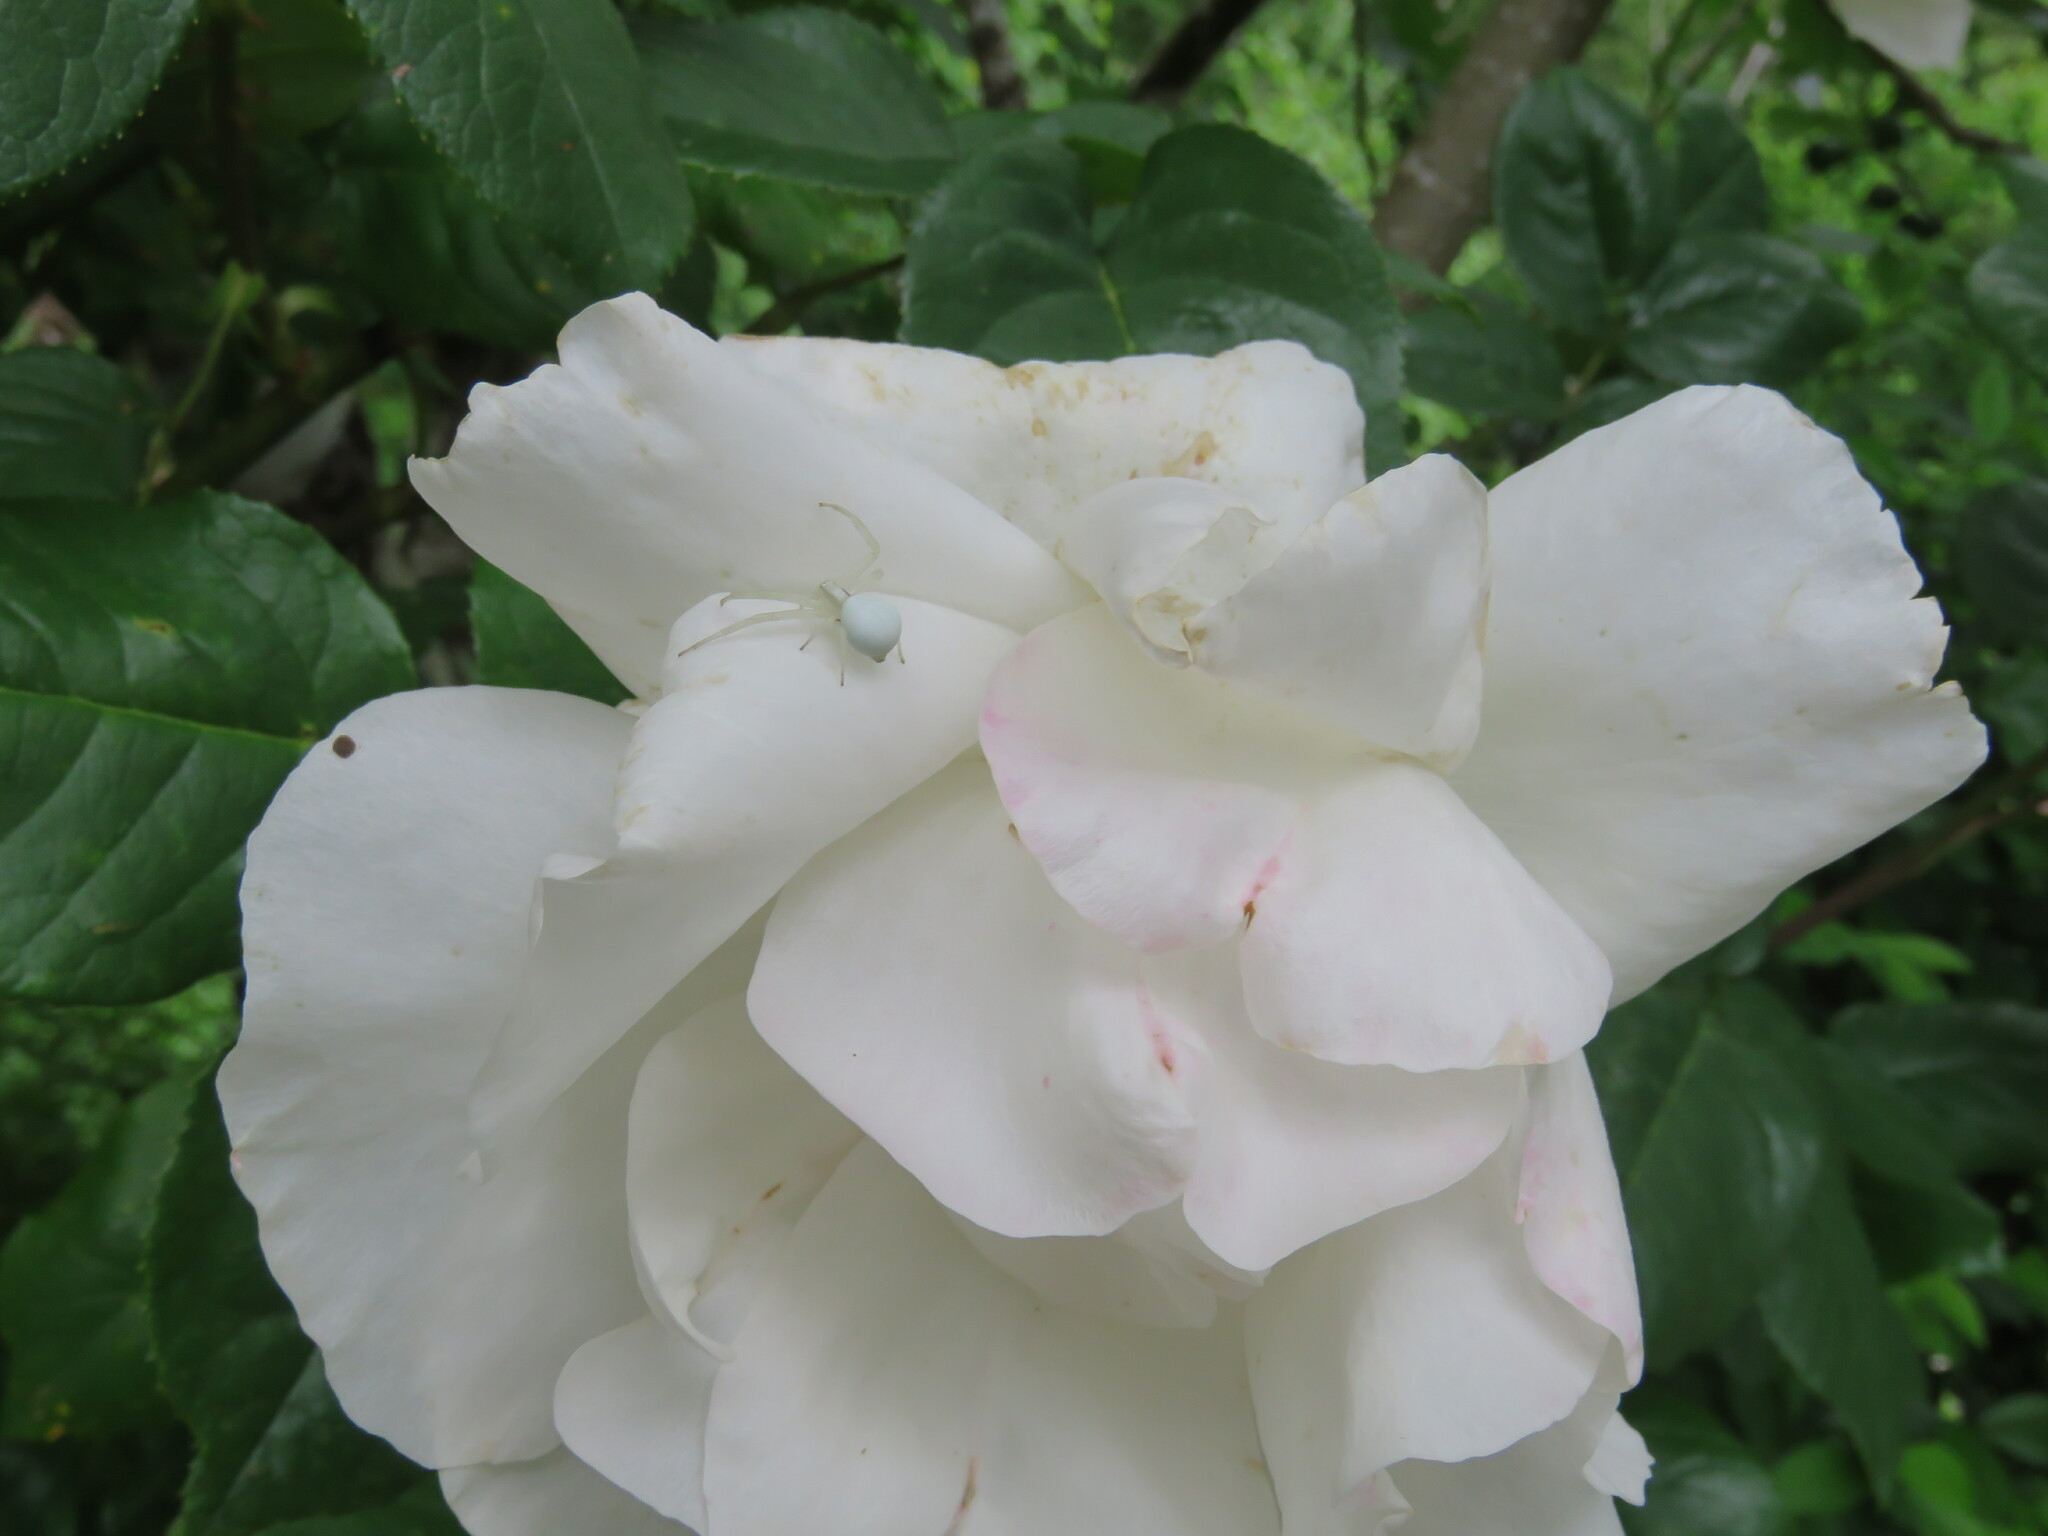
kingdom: Animalia
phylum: Arthropoda
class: Arachnida
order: Araneae
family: Thomisidae
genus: Misumena
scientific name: Misumena vatia
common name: Goldenrod crab spider
